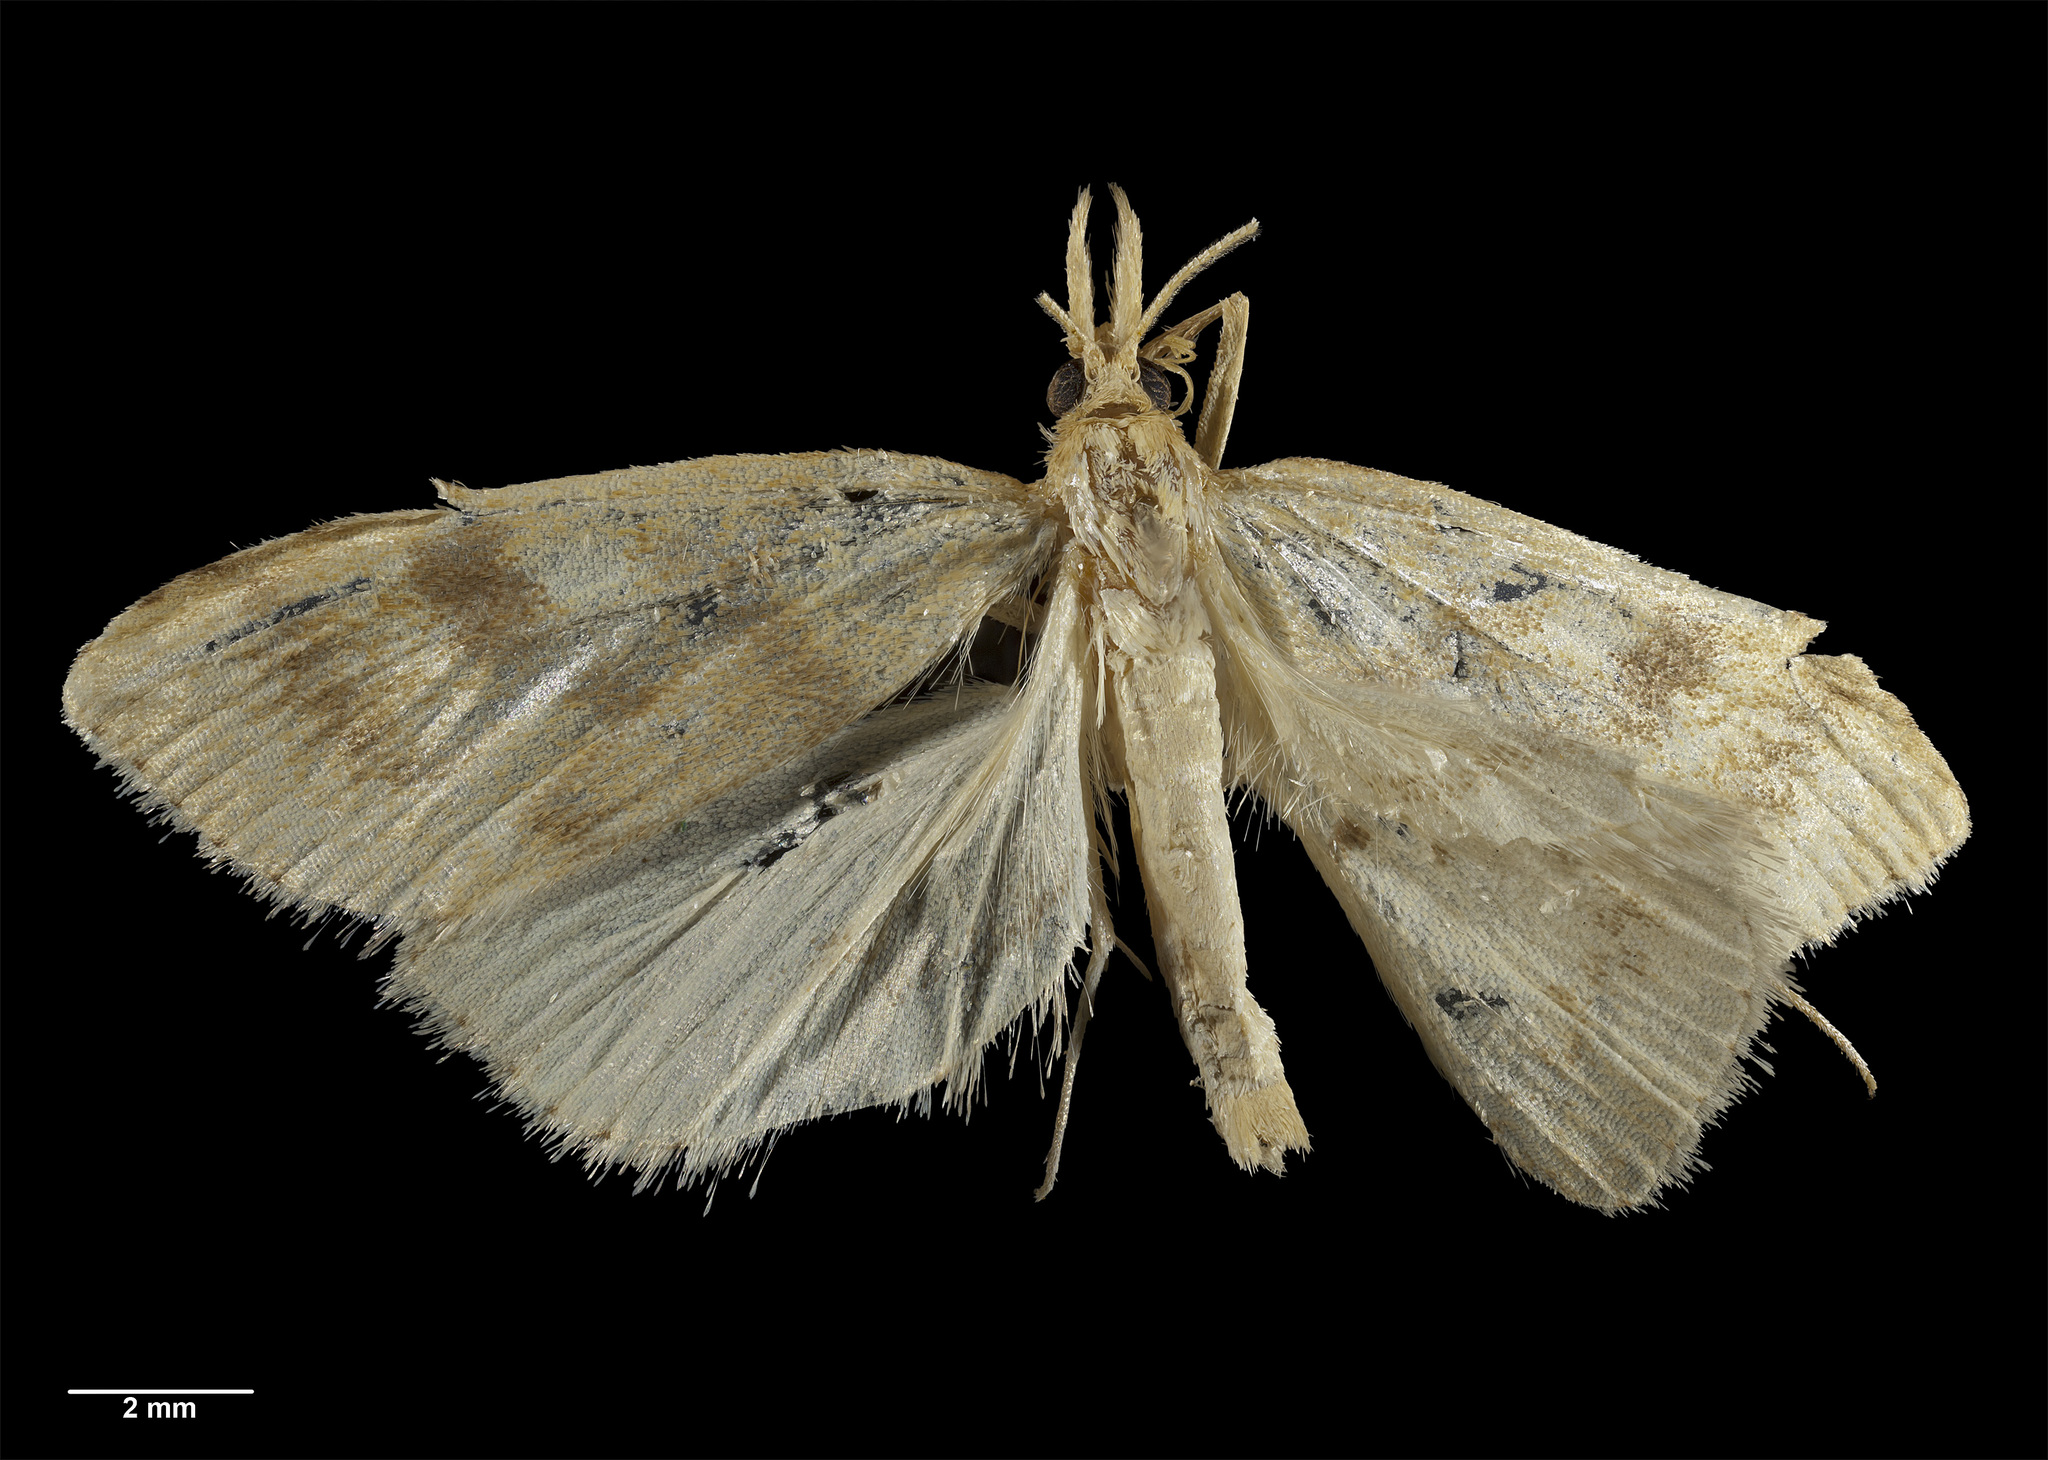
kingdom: Animalia
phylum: Arthropoda
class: Insecta
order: Lepidoptera
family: Crambidae
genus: Uresiphita
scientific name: Uresiphita antipodea
